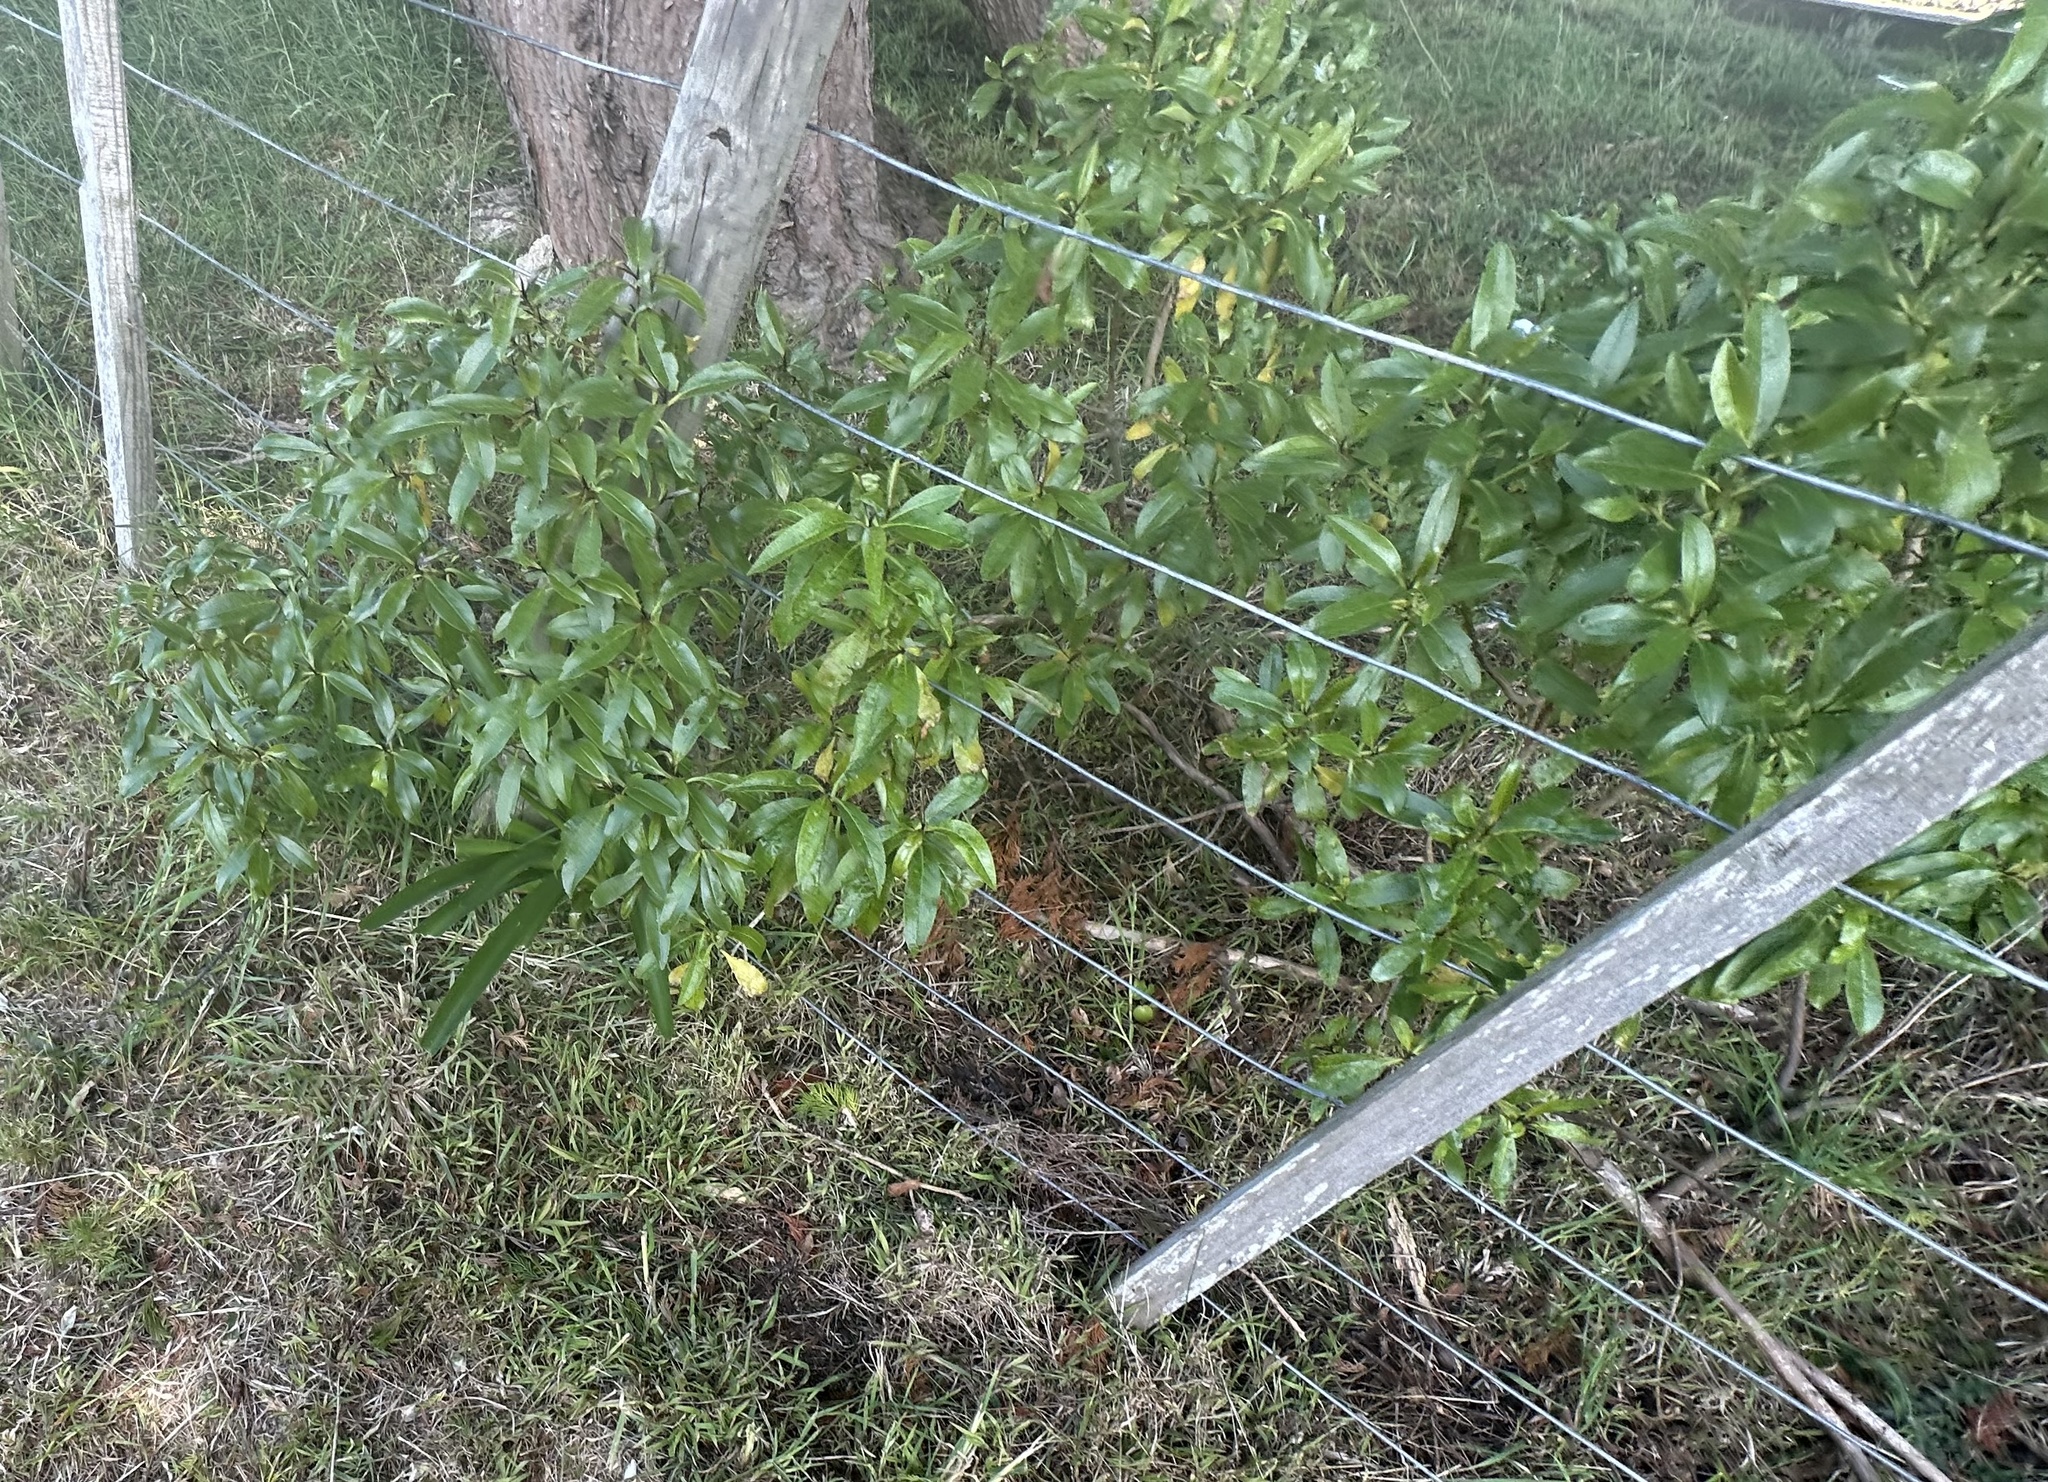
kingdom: Plantae
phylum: Tracheophyta
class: Magnoliopsida
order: Lamiales
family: Scrophulariaceae
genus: Myoporum
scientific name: Myoporum laetum
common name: Ngaio tree
